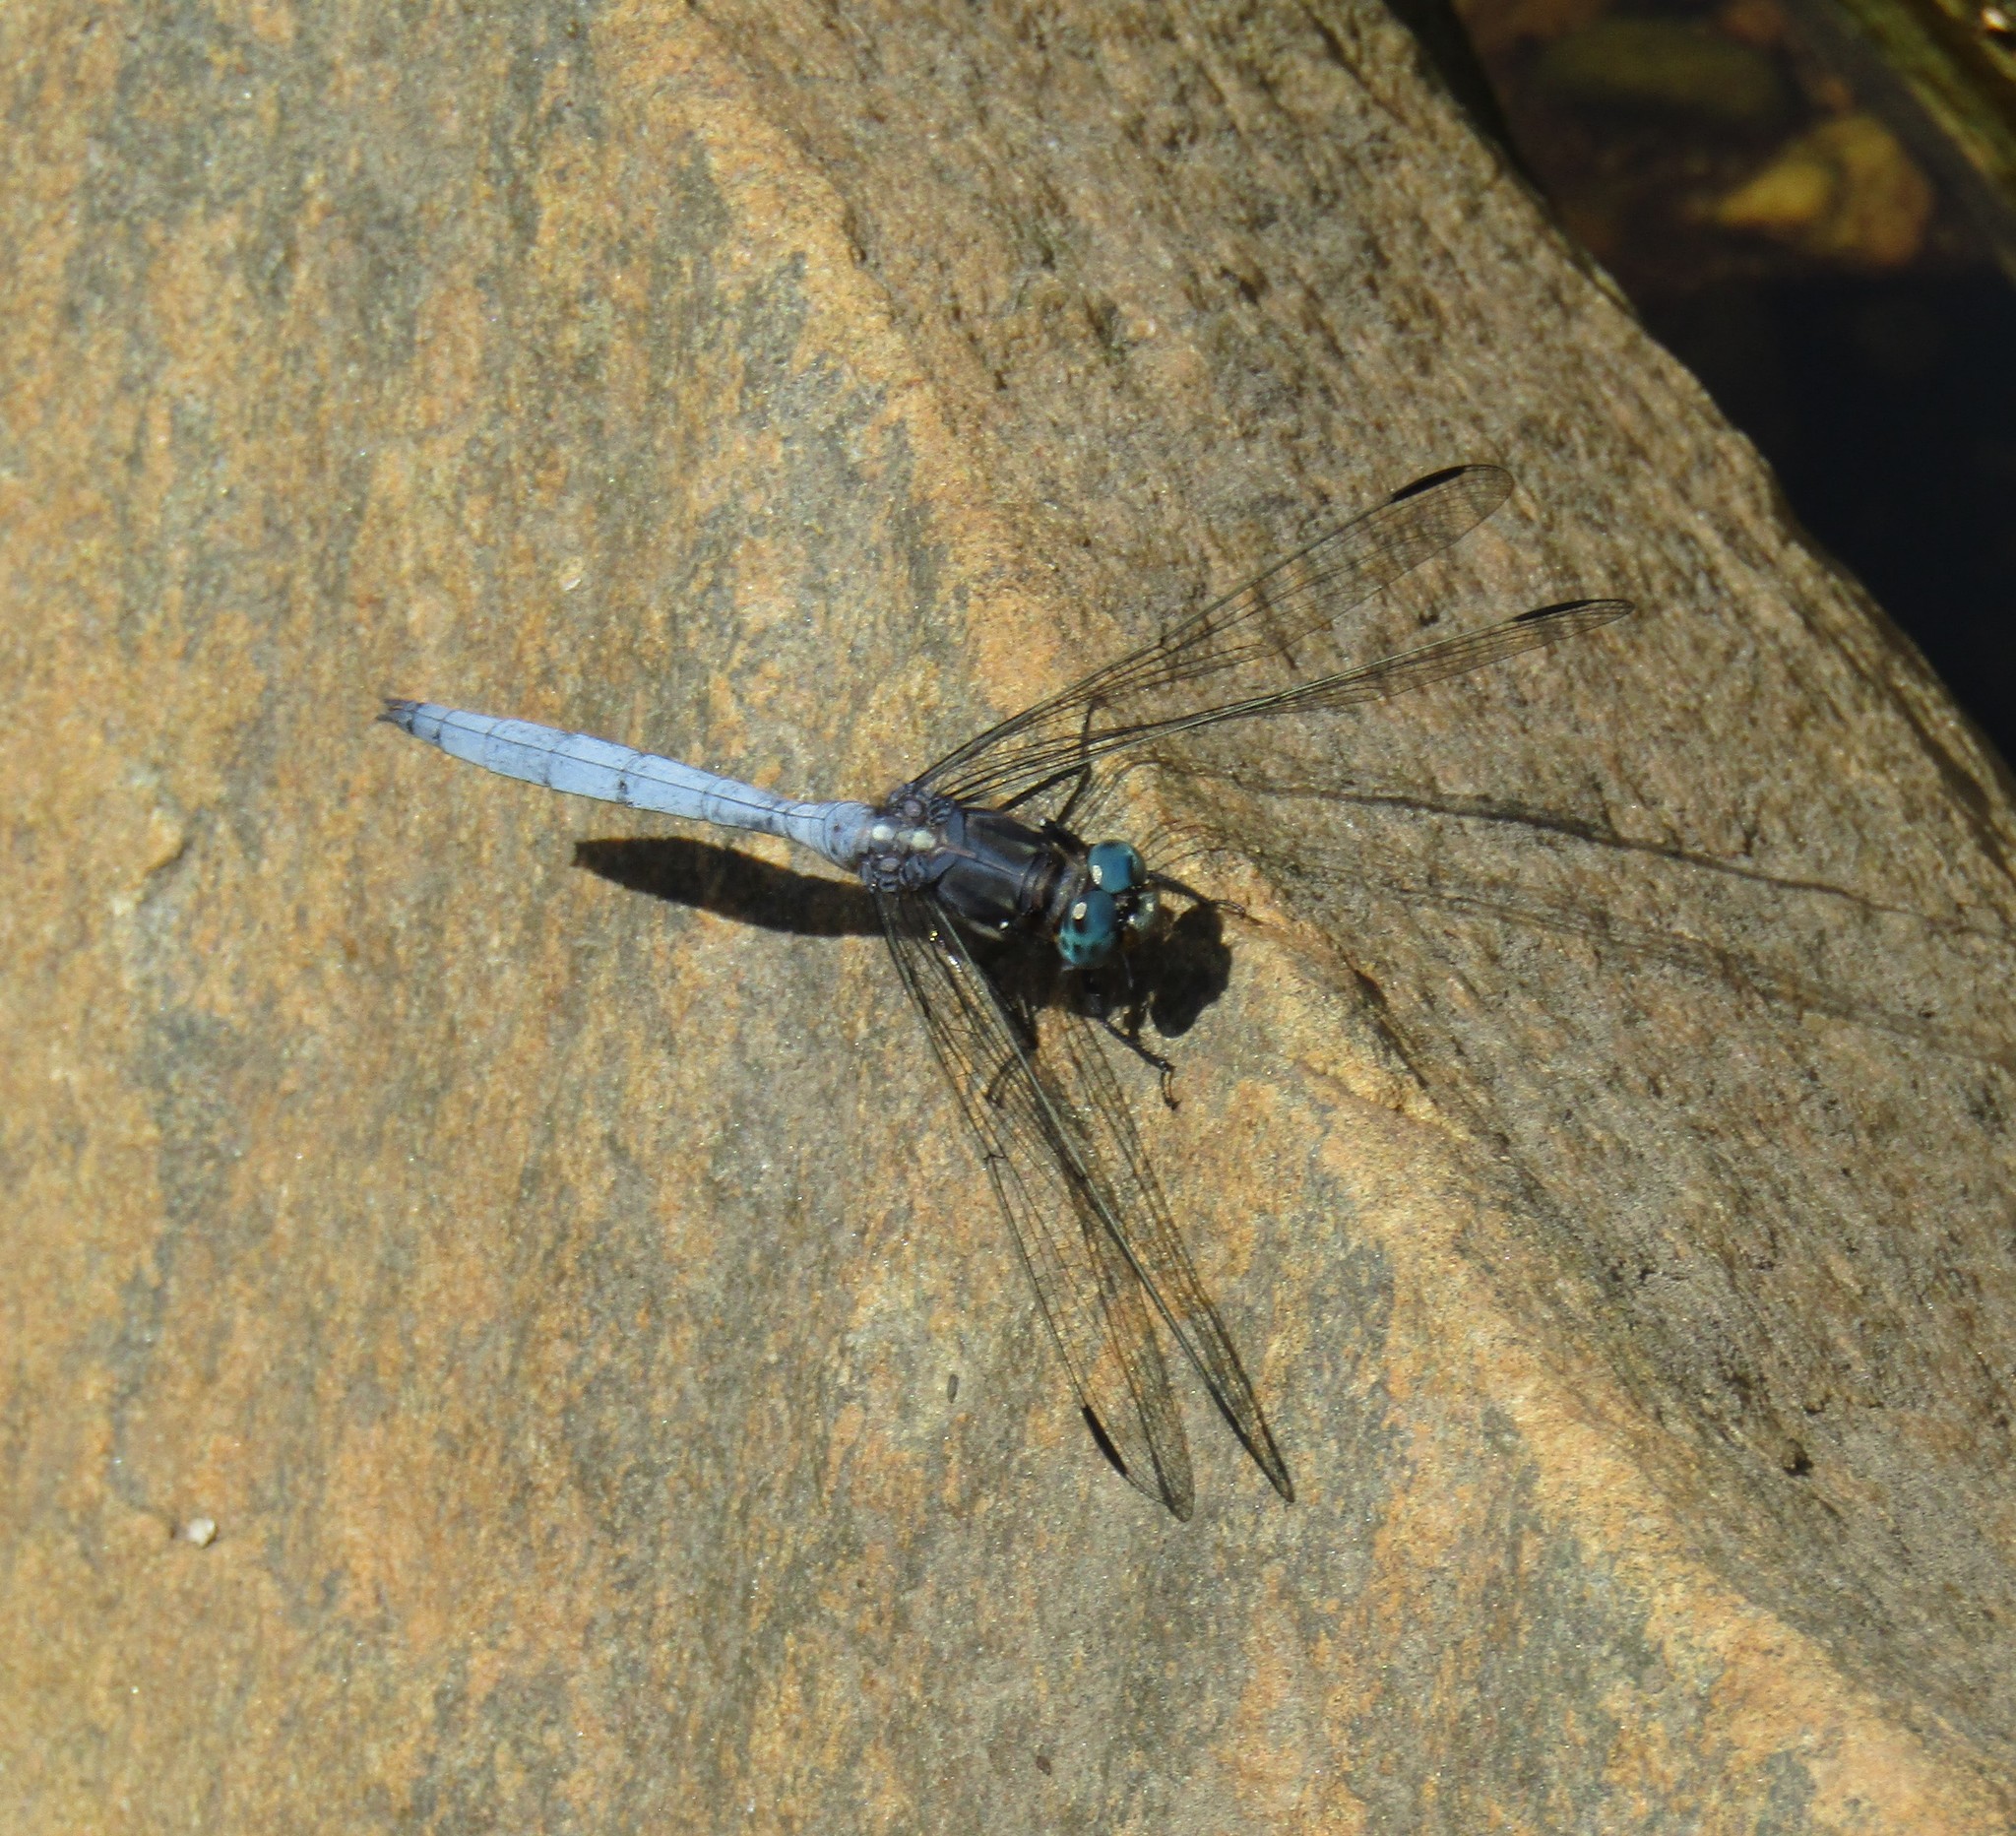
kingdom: Animalia
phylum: Arthropoda
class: Insecta
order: Odonata
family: Libellulidae
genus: Orthetrum
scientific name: Orthetrum julia
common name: Julia skimmer
